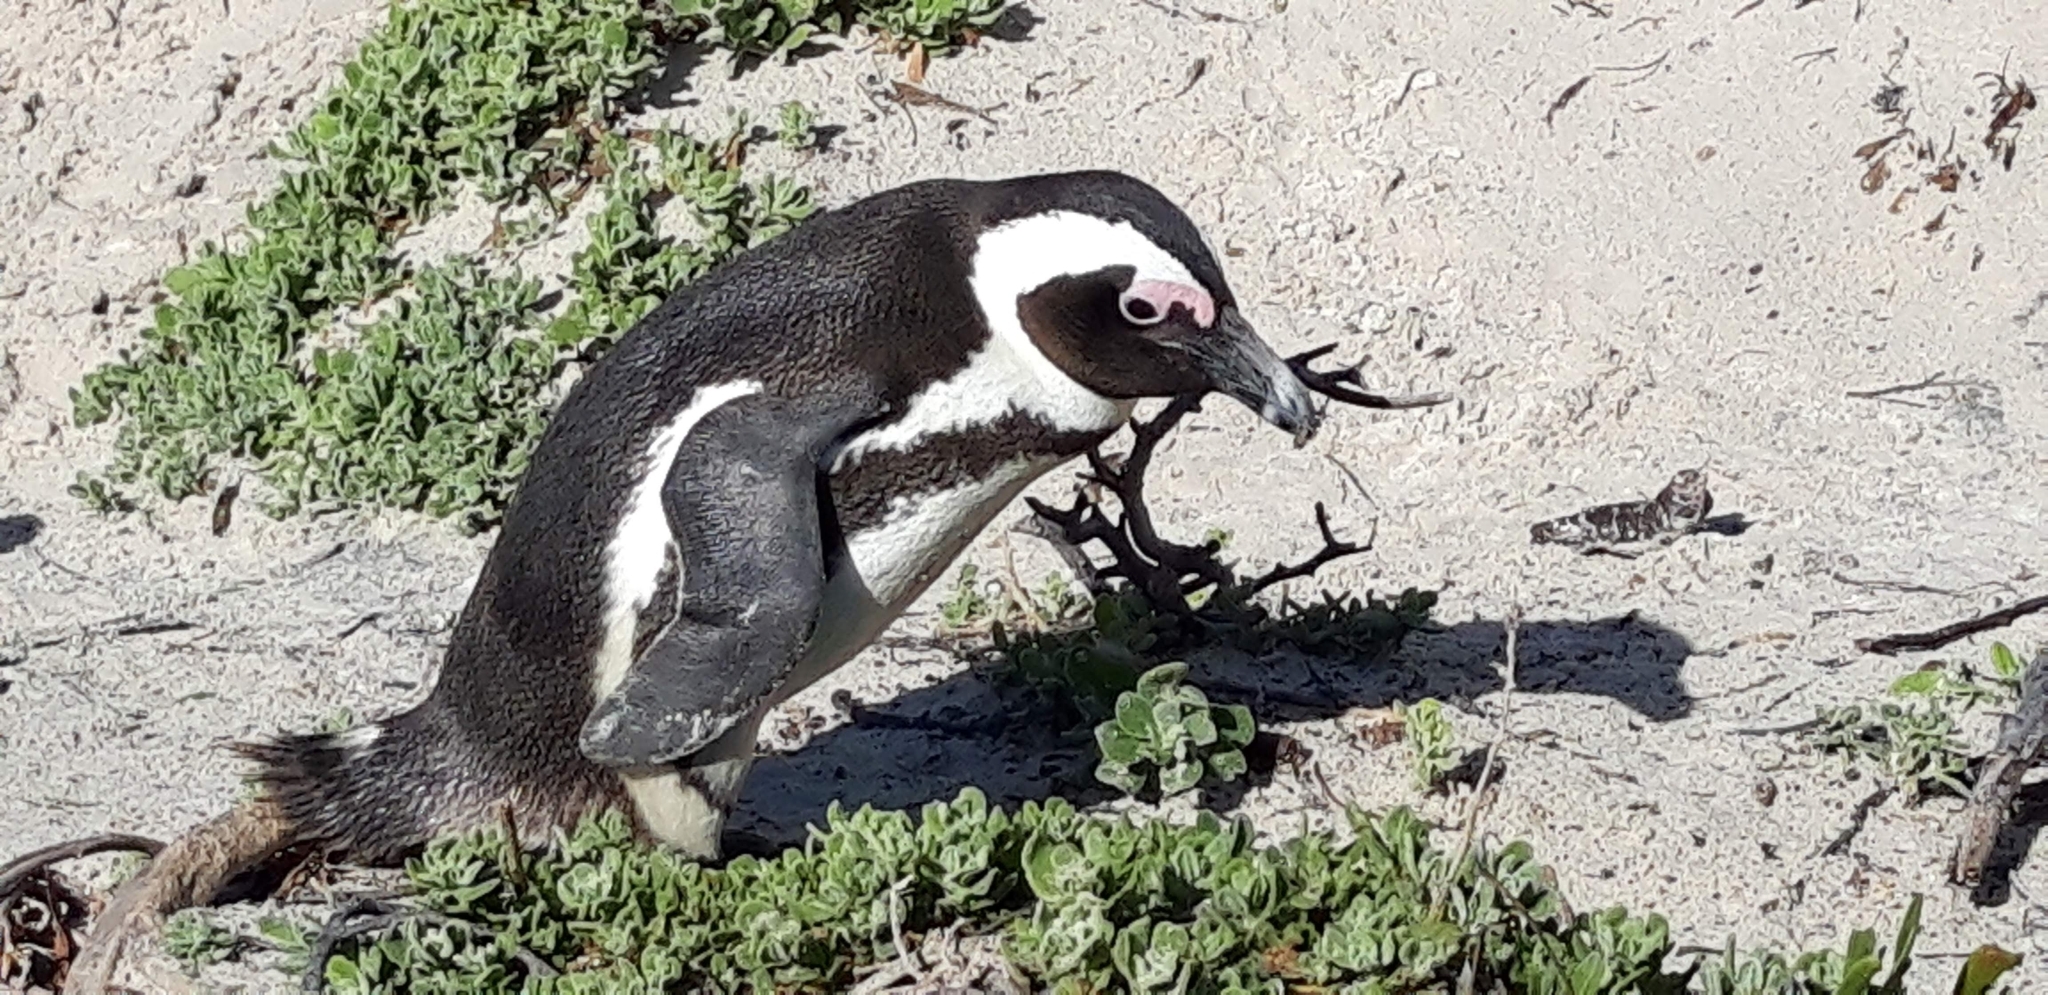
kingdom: Animalia
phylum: Chordata
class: Aves
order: Sphenisciformes
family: Spheniscidae
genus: Spheniscus
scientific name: Spheniscus demersus
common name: African penguin
